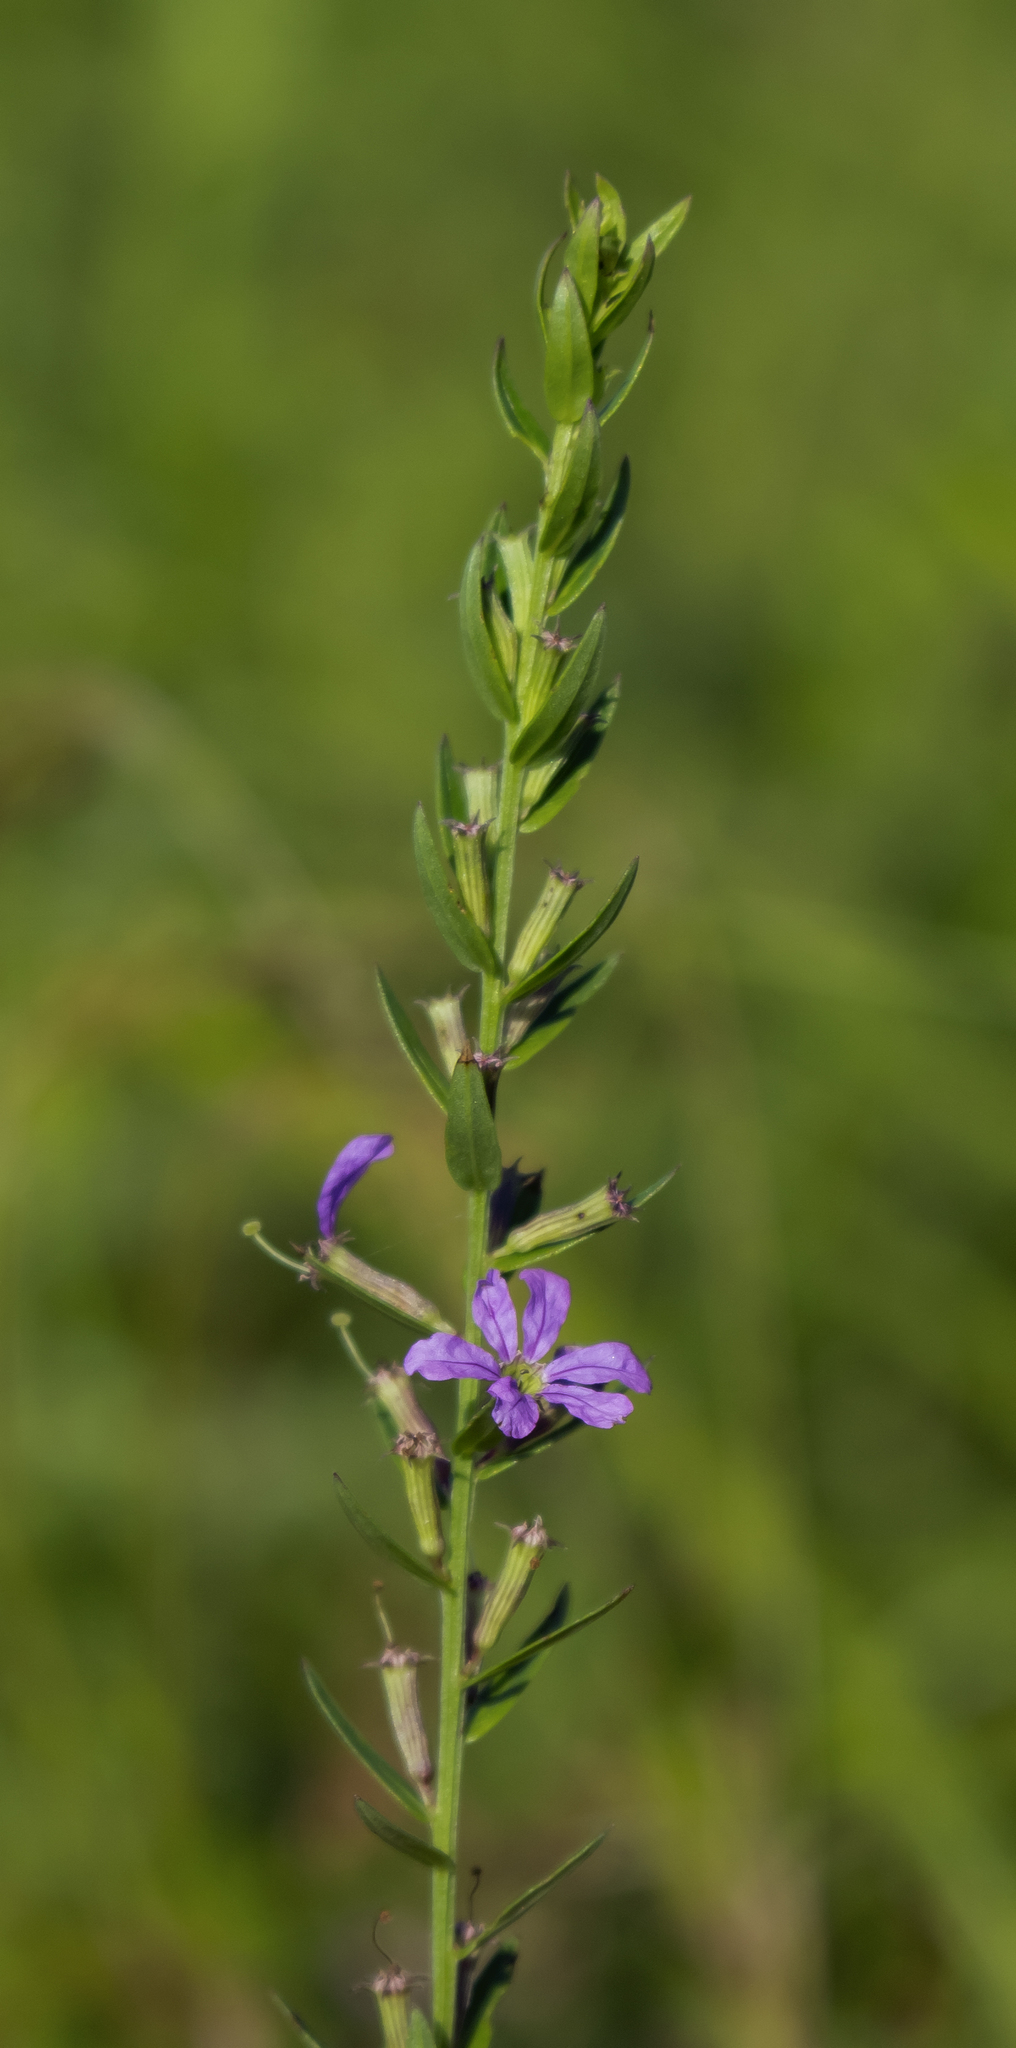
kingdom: Plantae
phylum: Tracheophyta
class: Magnoliopsida
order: Myrtales
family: Lythraceae
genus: Lythrum
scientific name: Lythrum alatum
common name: Winged loosestrife
